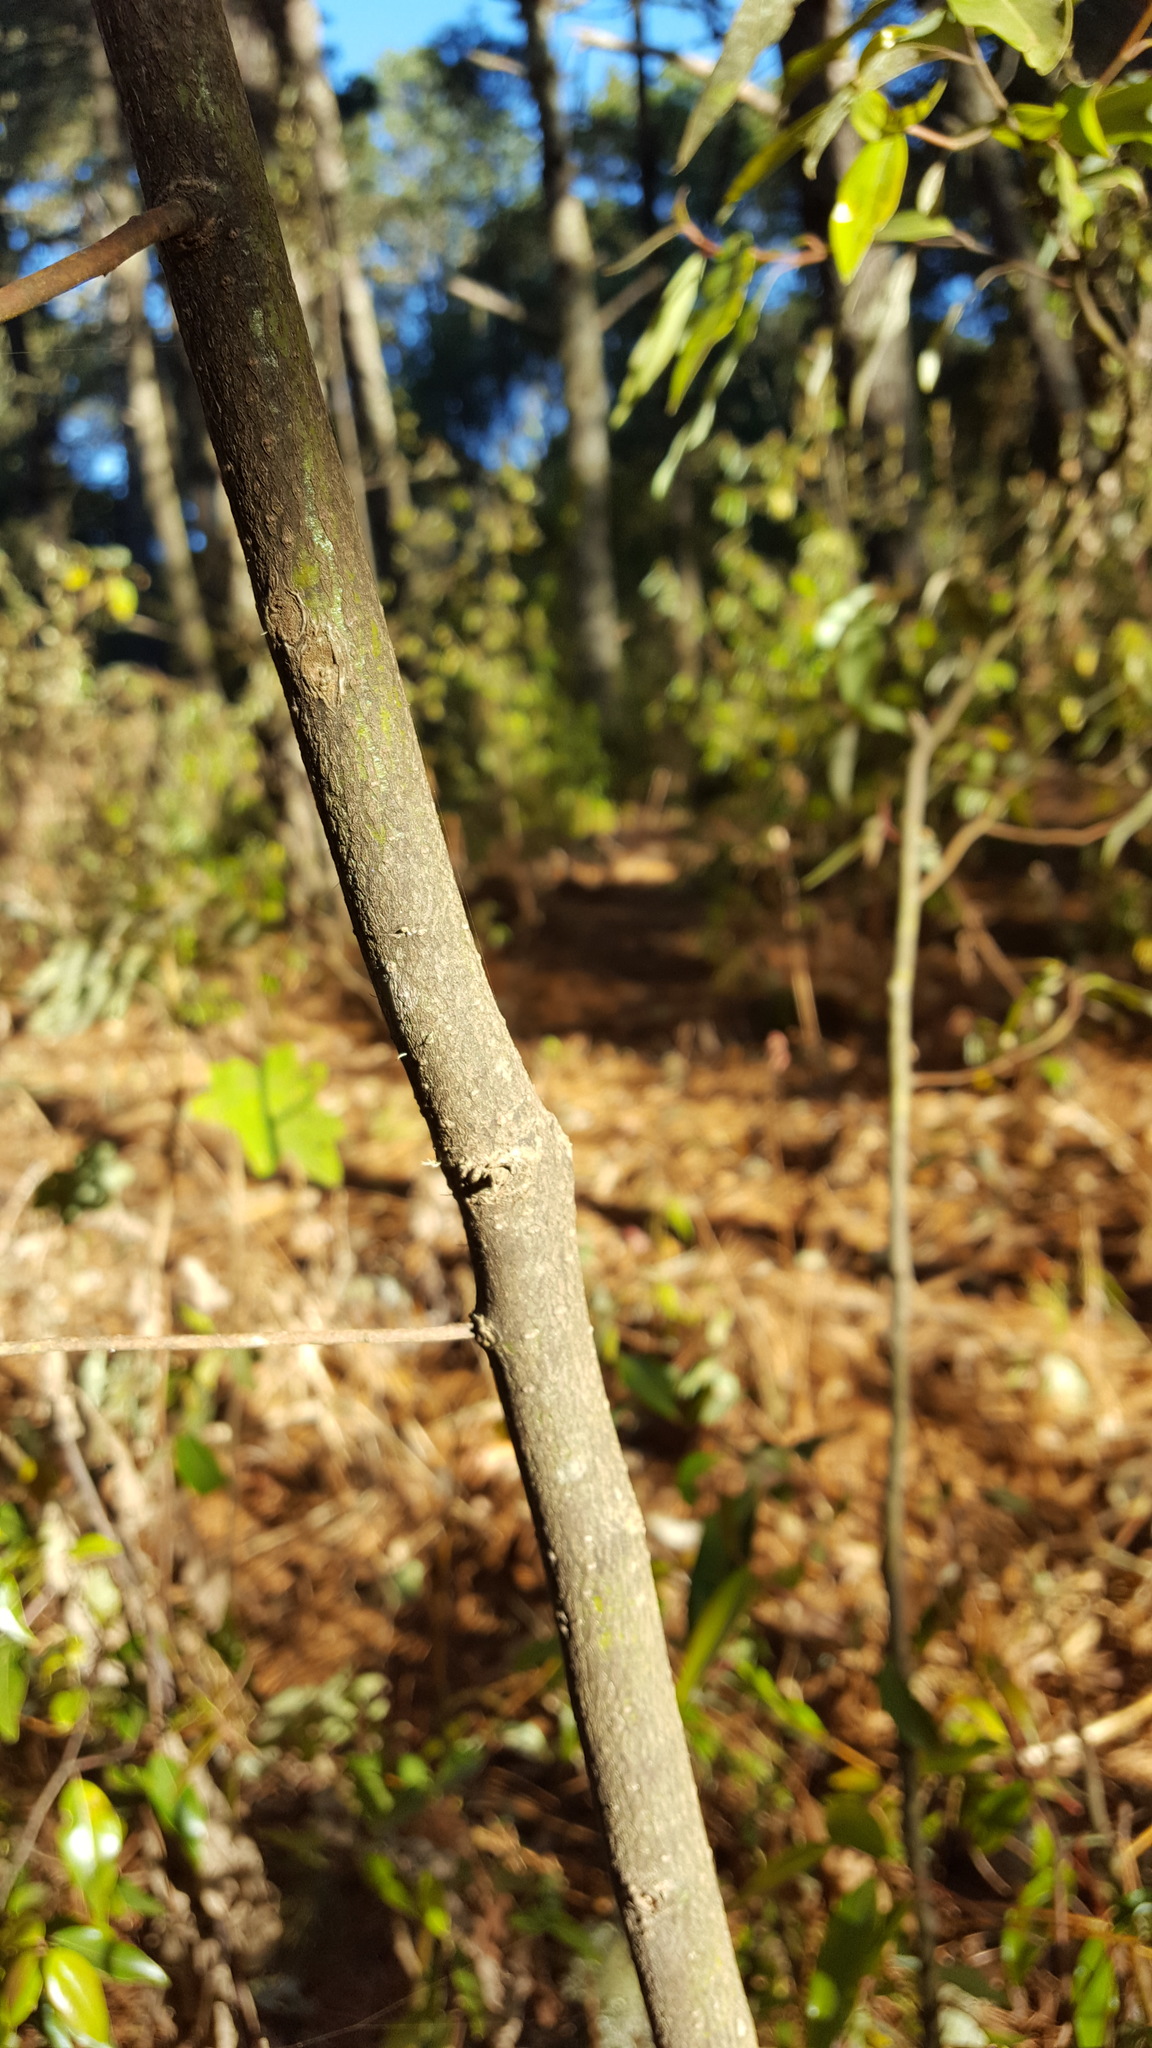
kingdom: Plantae
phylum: Tracheophyta
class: Magnoliopsida
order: Laurales
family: Lauraceae
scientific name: Lauraceae
